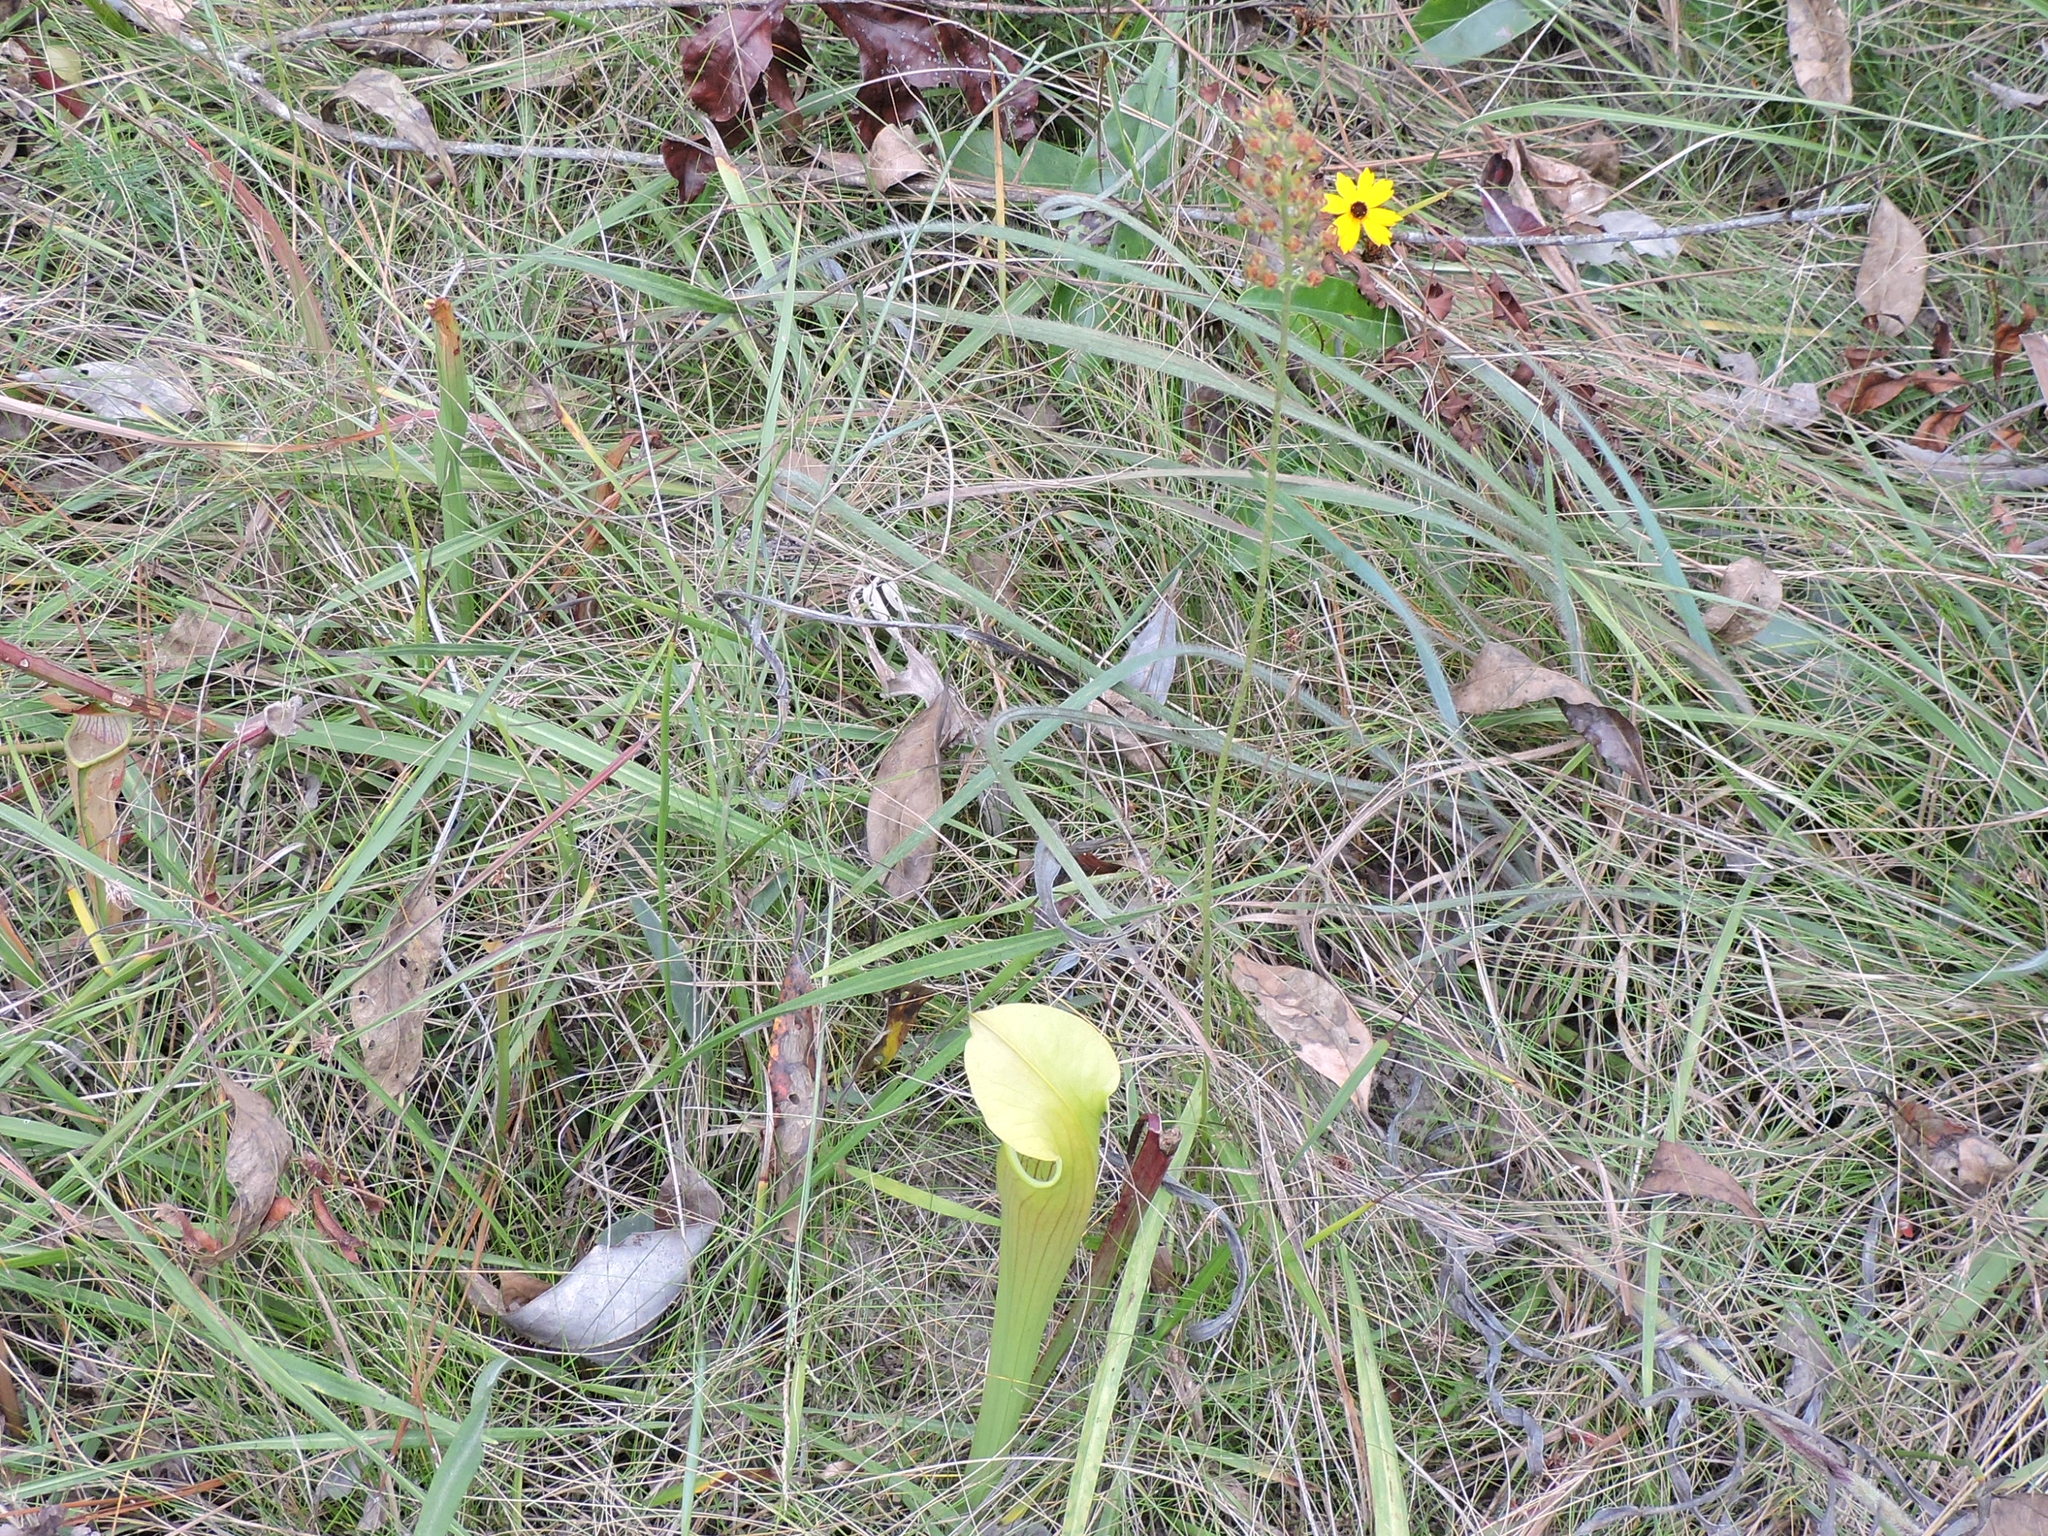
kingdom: Plantae
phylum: Tracheophyta
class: Liliopsida
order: Alismatales
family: Tofieldiaceae
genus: Triantha
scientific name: Triantha racemosa
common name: Coastal false asphodel
